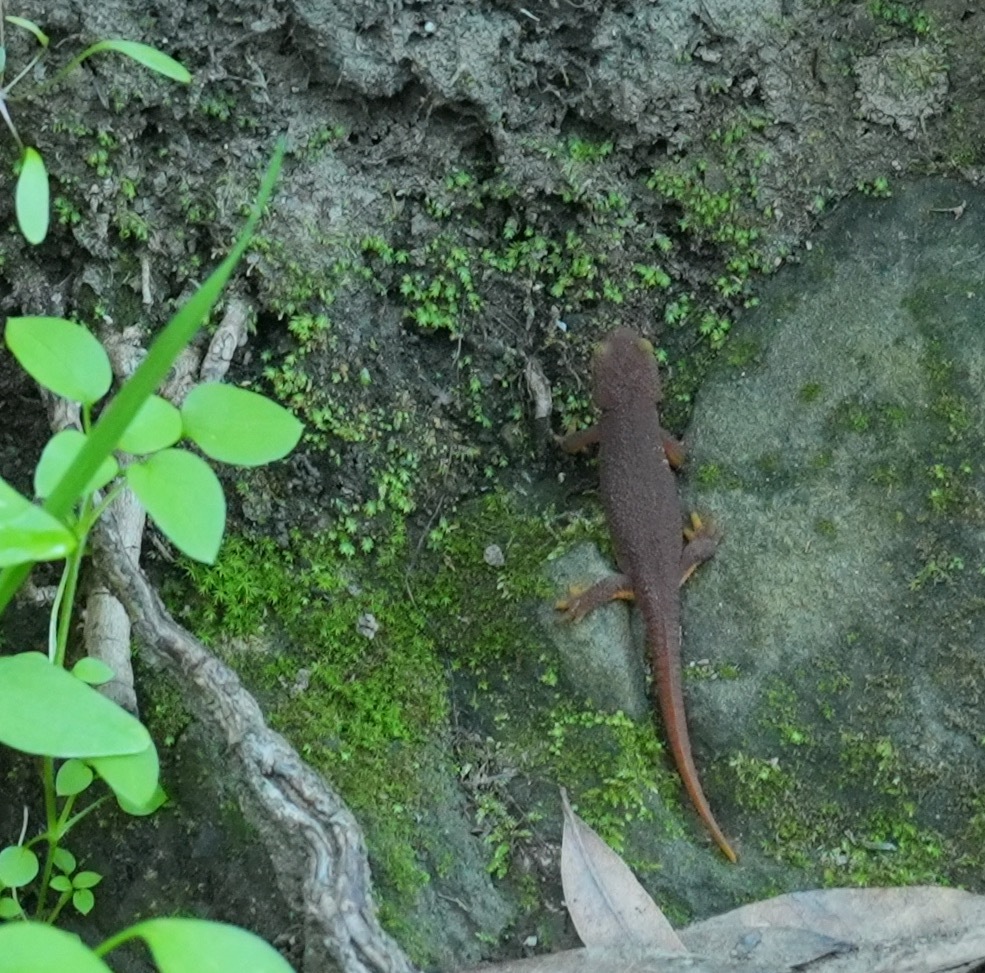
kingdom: Animalia
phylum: Chordata
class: Amphibia
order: Caudata
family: Salamandridae
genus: Taricha
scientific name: Taricha torosa
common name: California newt
